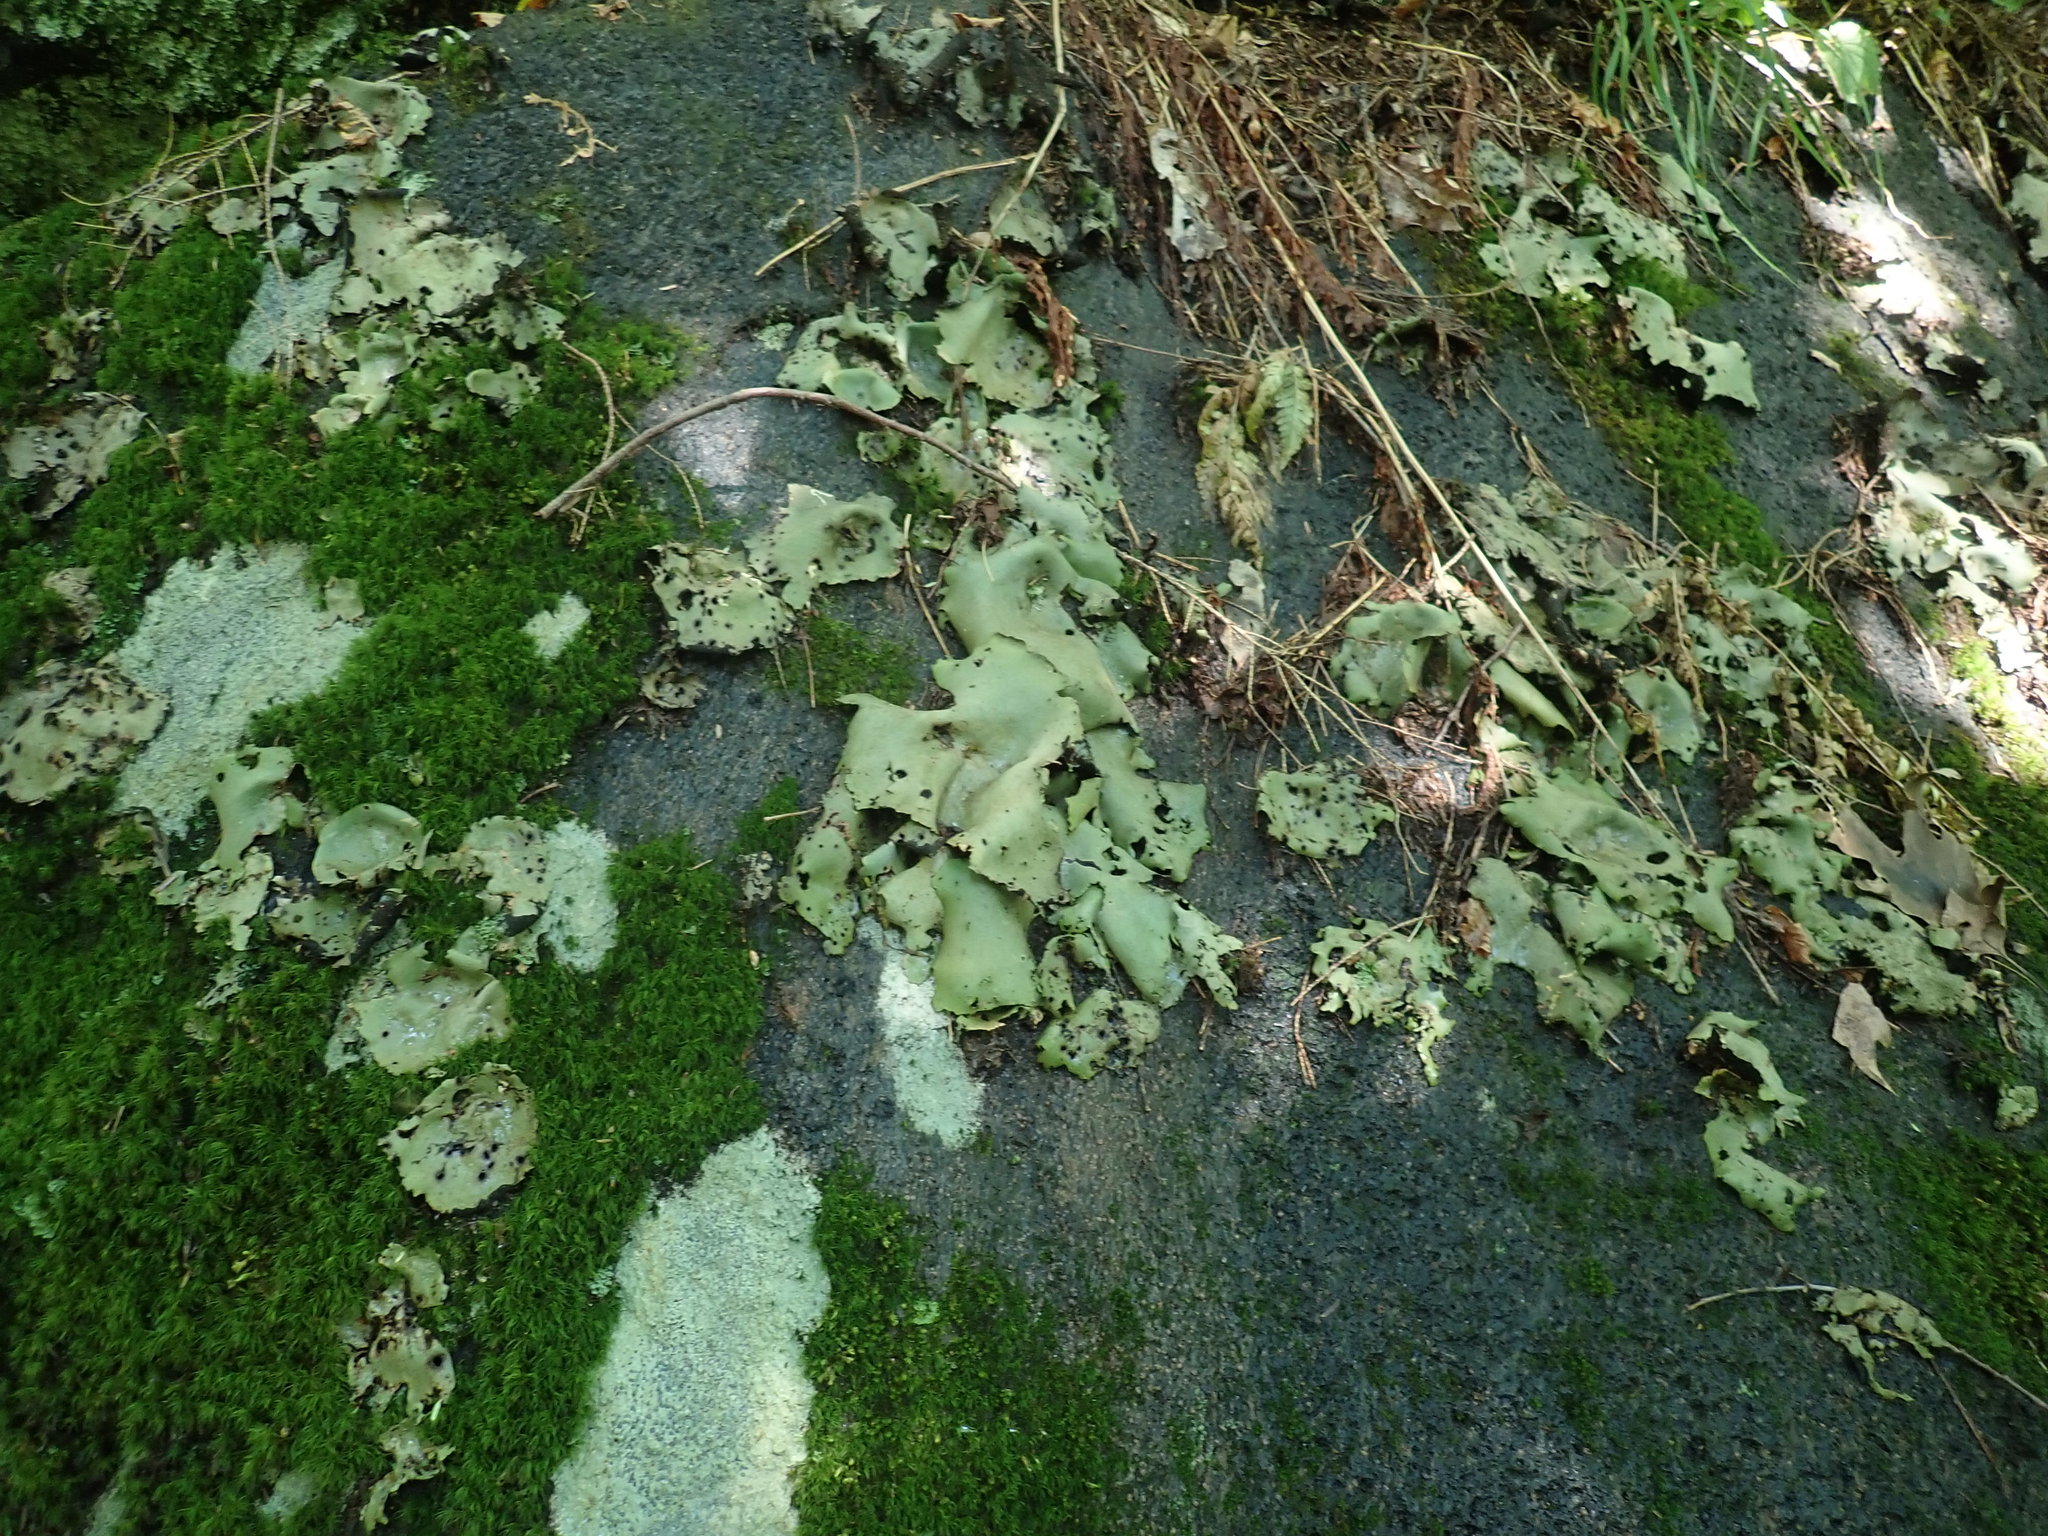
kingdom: Fungi
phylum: Ascomycota
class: Lecanoromycetes
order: Umbilicariales
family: Umbilicariaceae
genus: Umbilicaria
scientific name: Umbilicaria mammulata
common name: Smooth rock tripe
